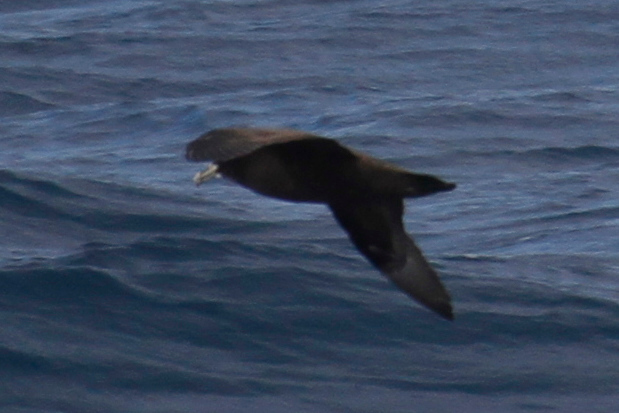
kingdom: Animalia
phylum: Chordata
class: Aves
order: Procellariiformes
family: Procellariidae
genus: Procellaria
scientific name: Procellaria aequinoctialis
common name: White-chinned petrel
